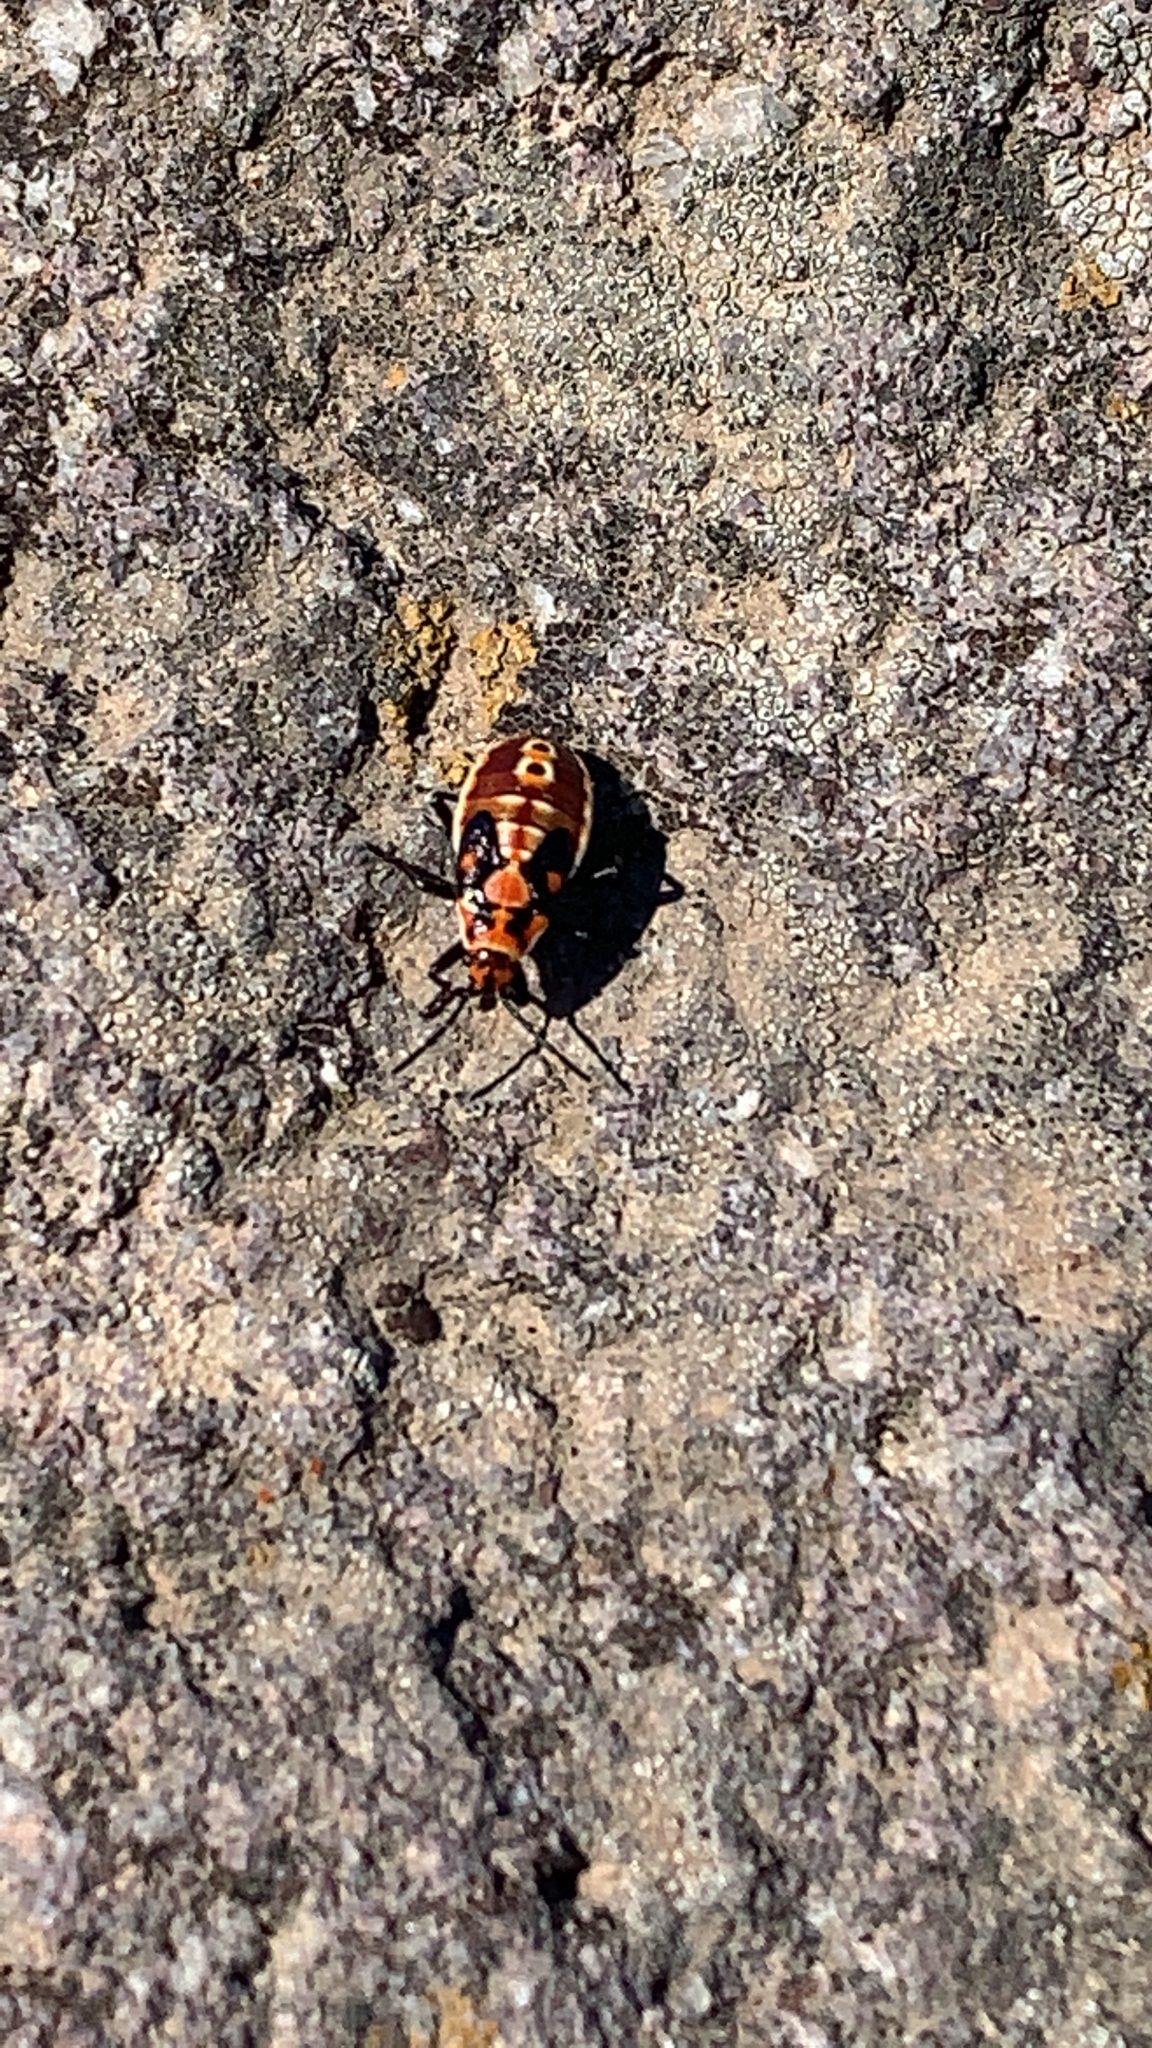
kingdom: Animalia
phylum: Arthropoda
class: Insecta
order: Hemiptera
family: Lygaeidae
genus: Spilostethus
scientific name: Spilostethus pandurus
